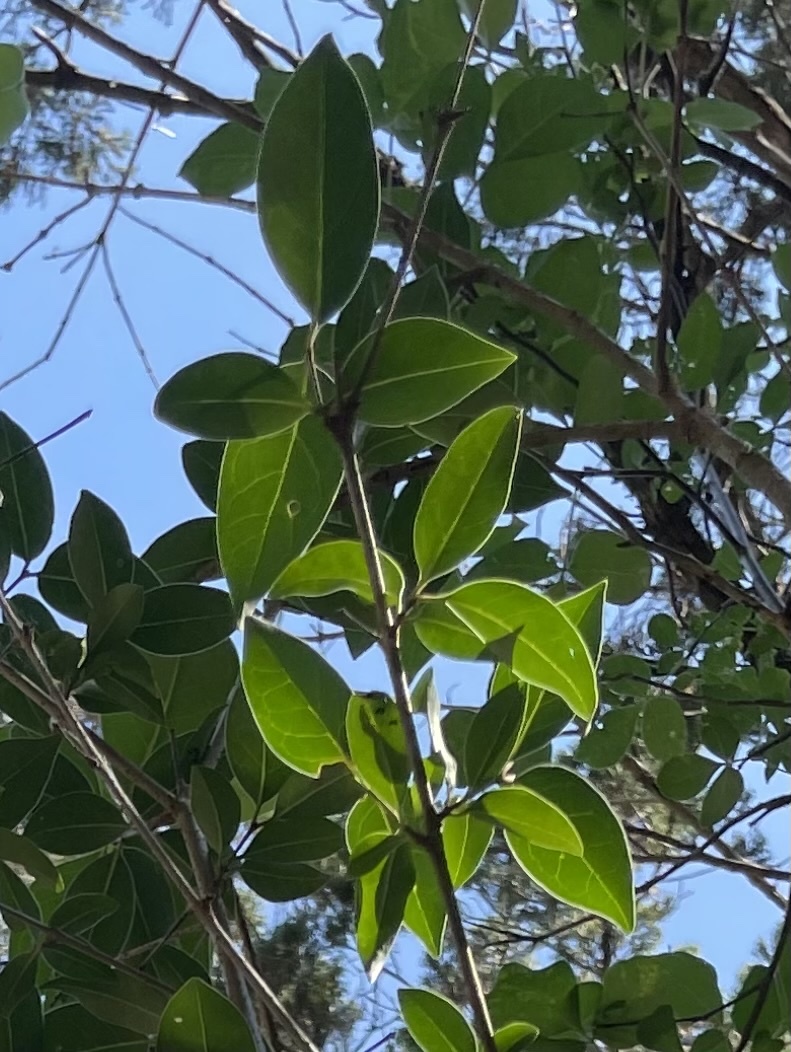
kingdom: Plantae
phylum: Tracheophyta
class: Magnoliopsida
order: Lamiales
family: Oleaceae
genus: Ligustrum
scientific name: Ligustrum lucidum
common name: Glossy privet
